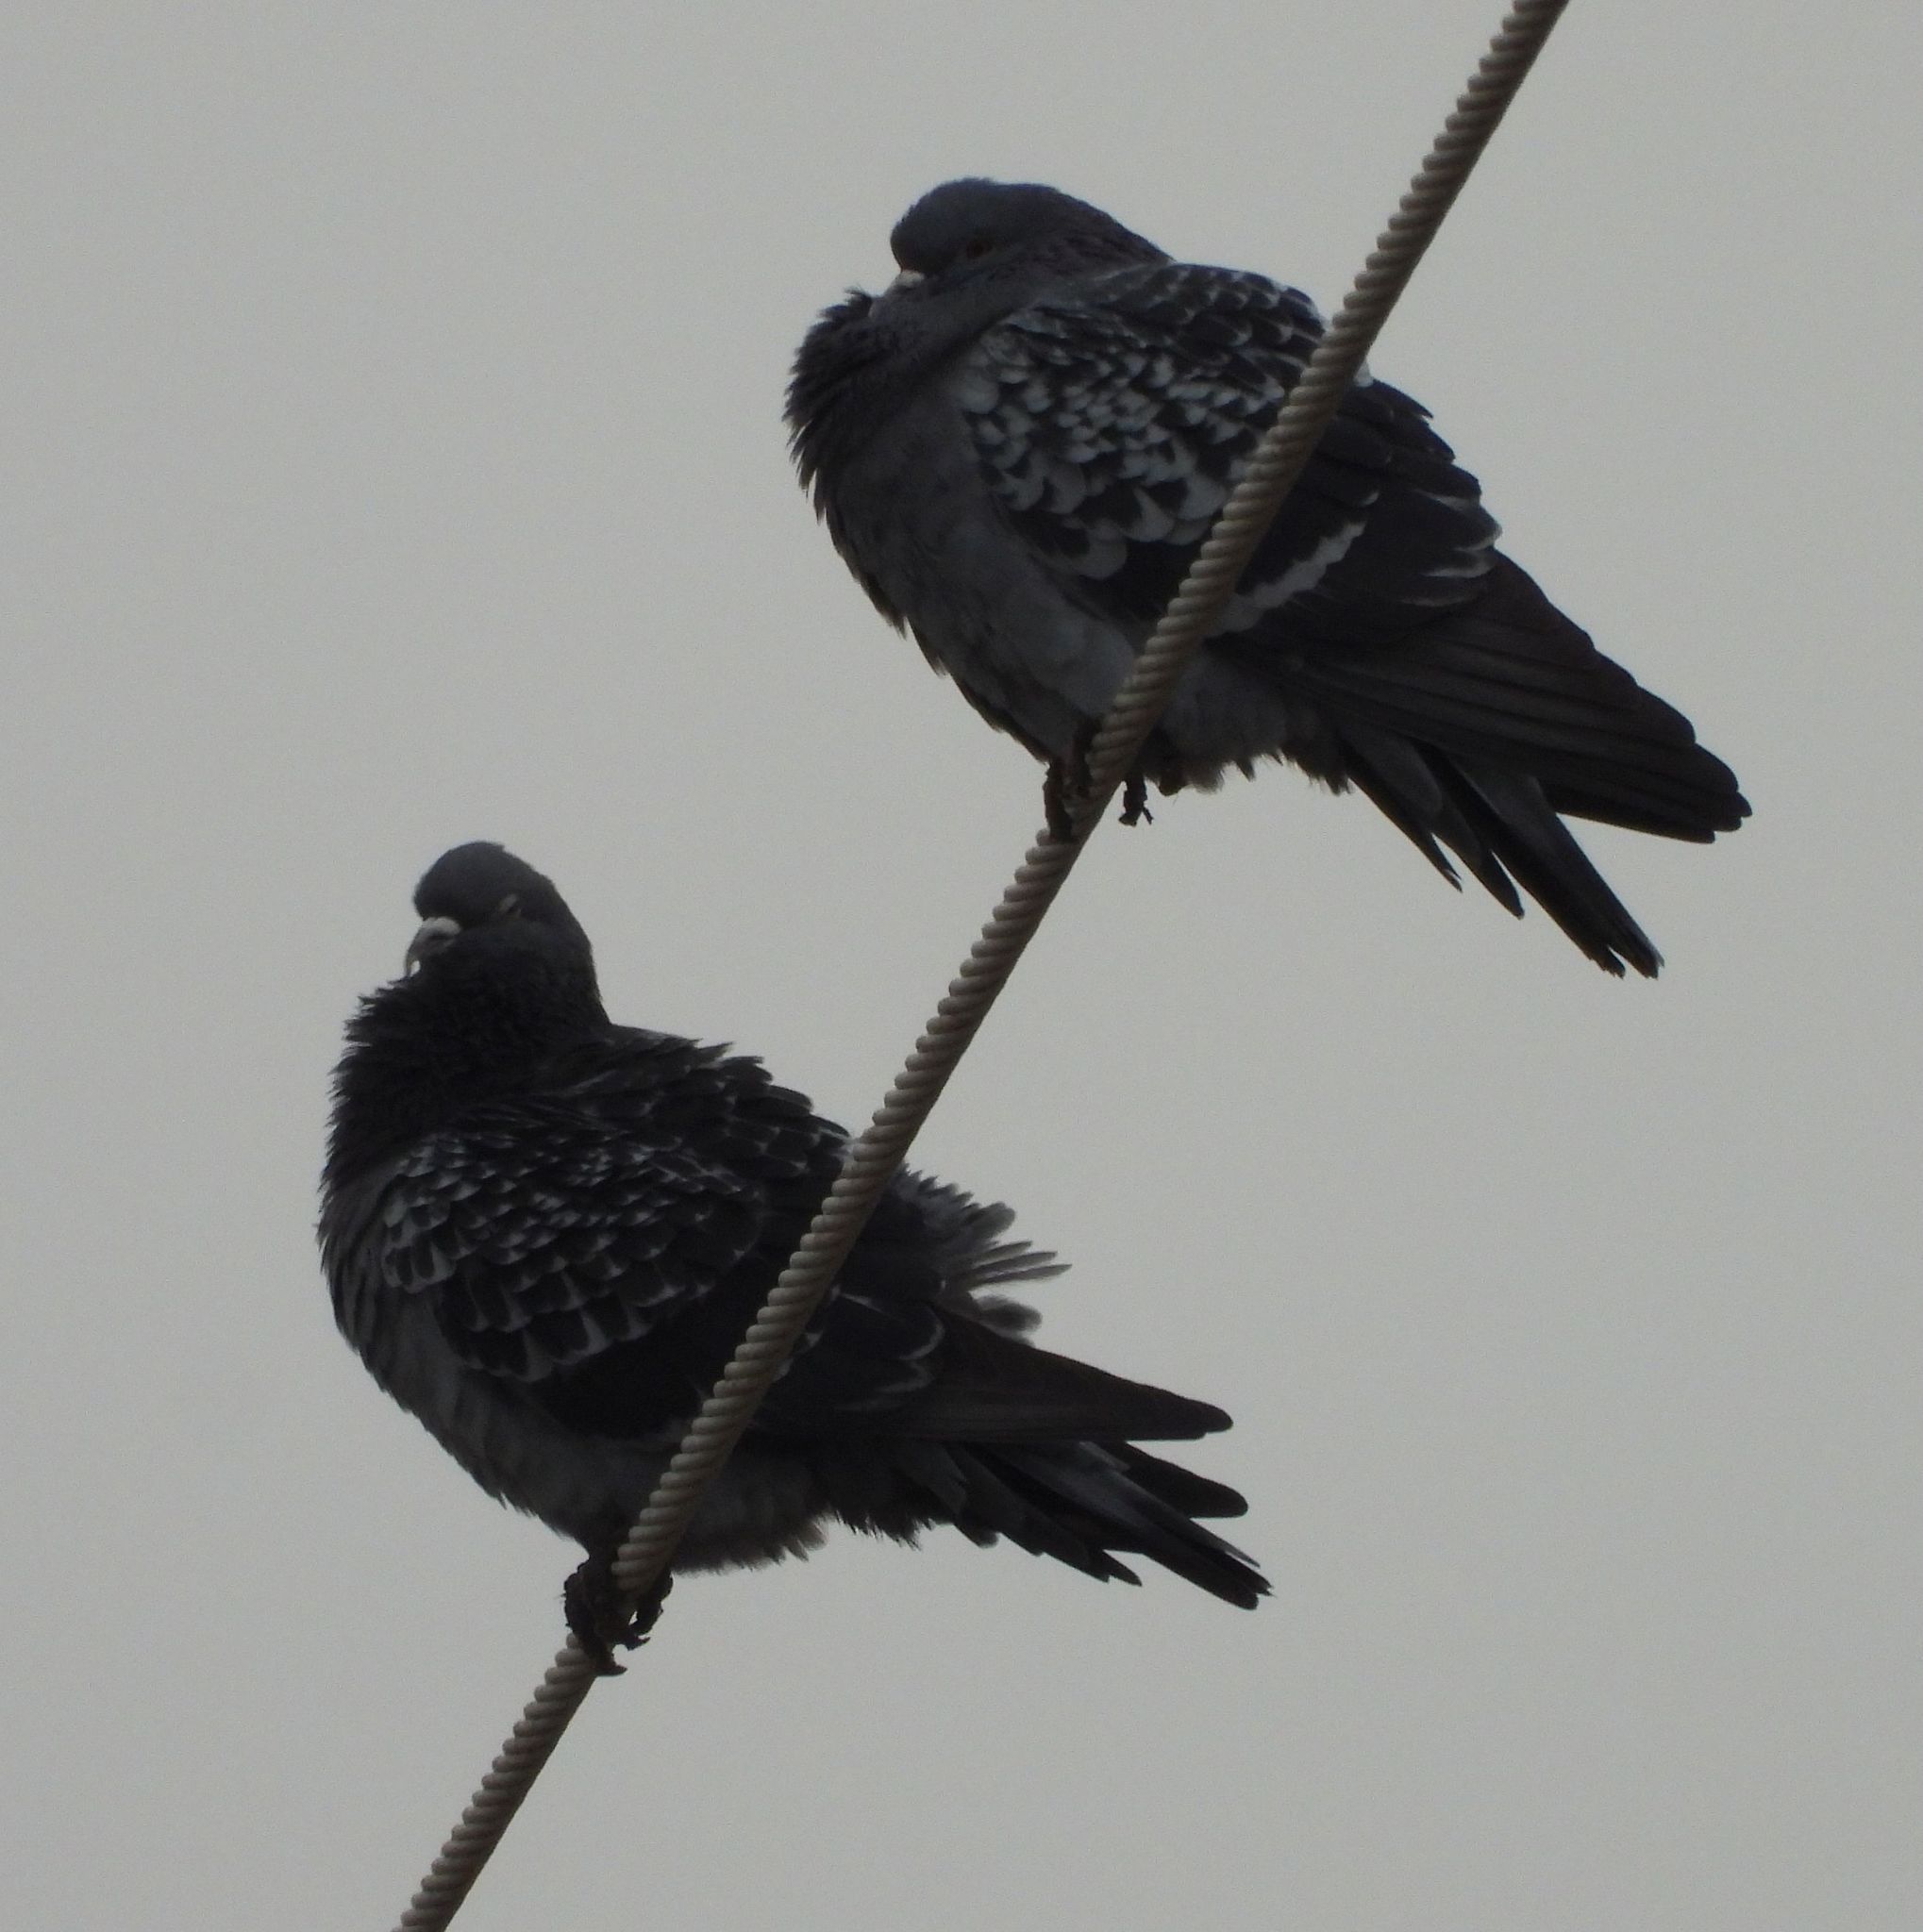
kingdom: Animalia
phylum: Chordata
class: Aves
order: Columbiformes
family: Columbidae
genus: Columba
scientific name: Columba livia
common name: Rock pigeon
